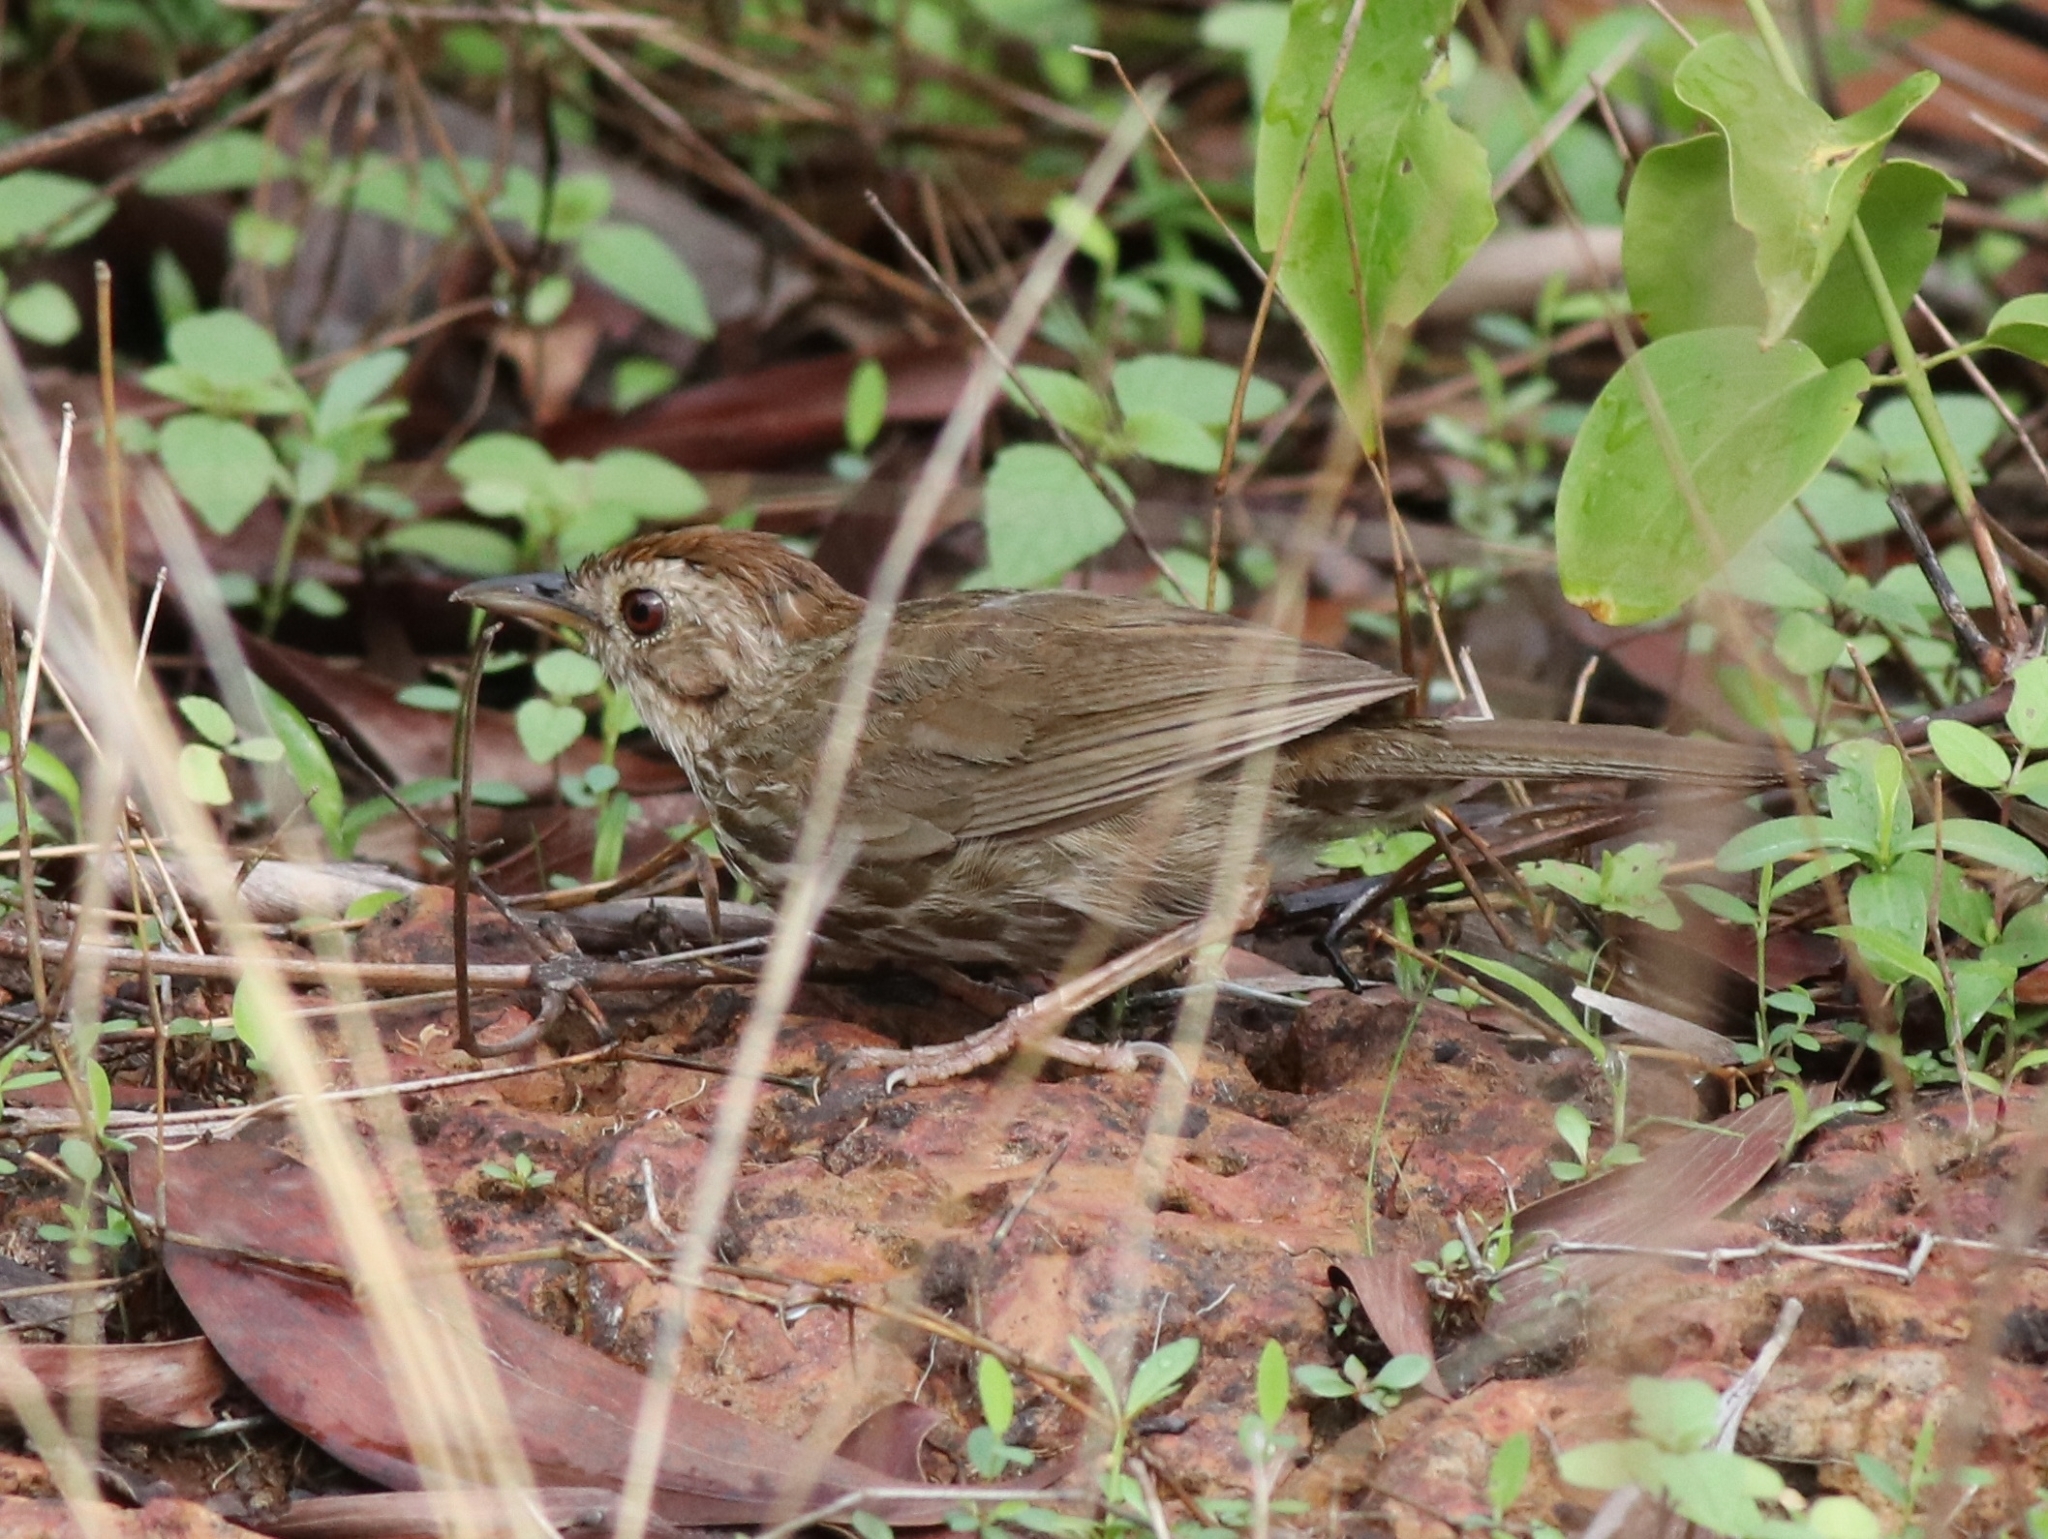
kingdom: Animalia
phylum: Chordata
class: Aves
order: Passeriformes
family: Pellorneidae
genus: Pellorneum
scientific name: Pellorneum ruficeps
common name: Puff-throated babbler
